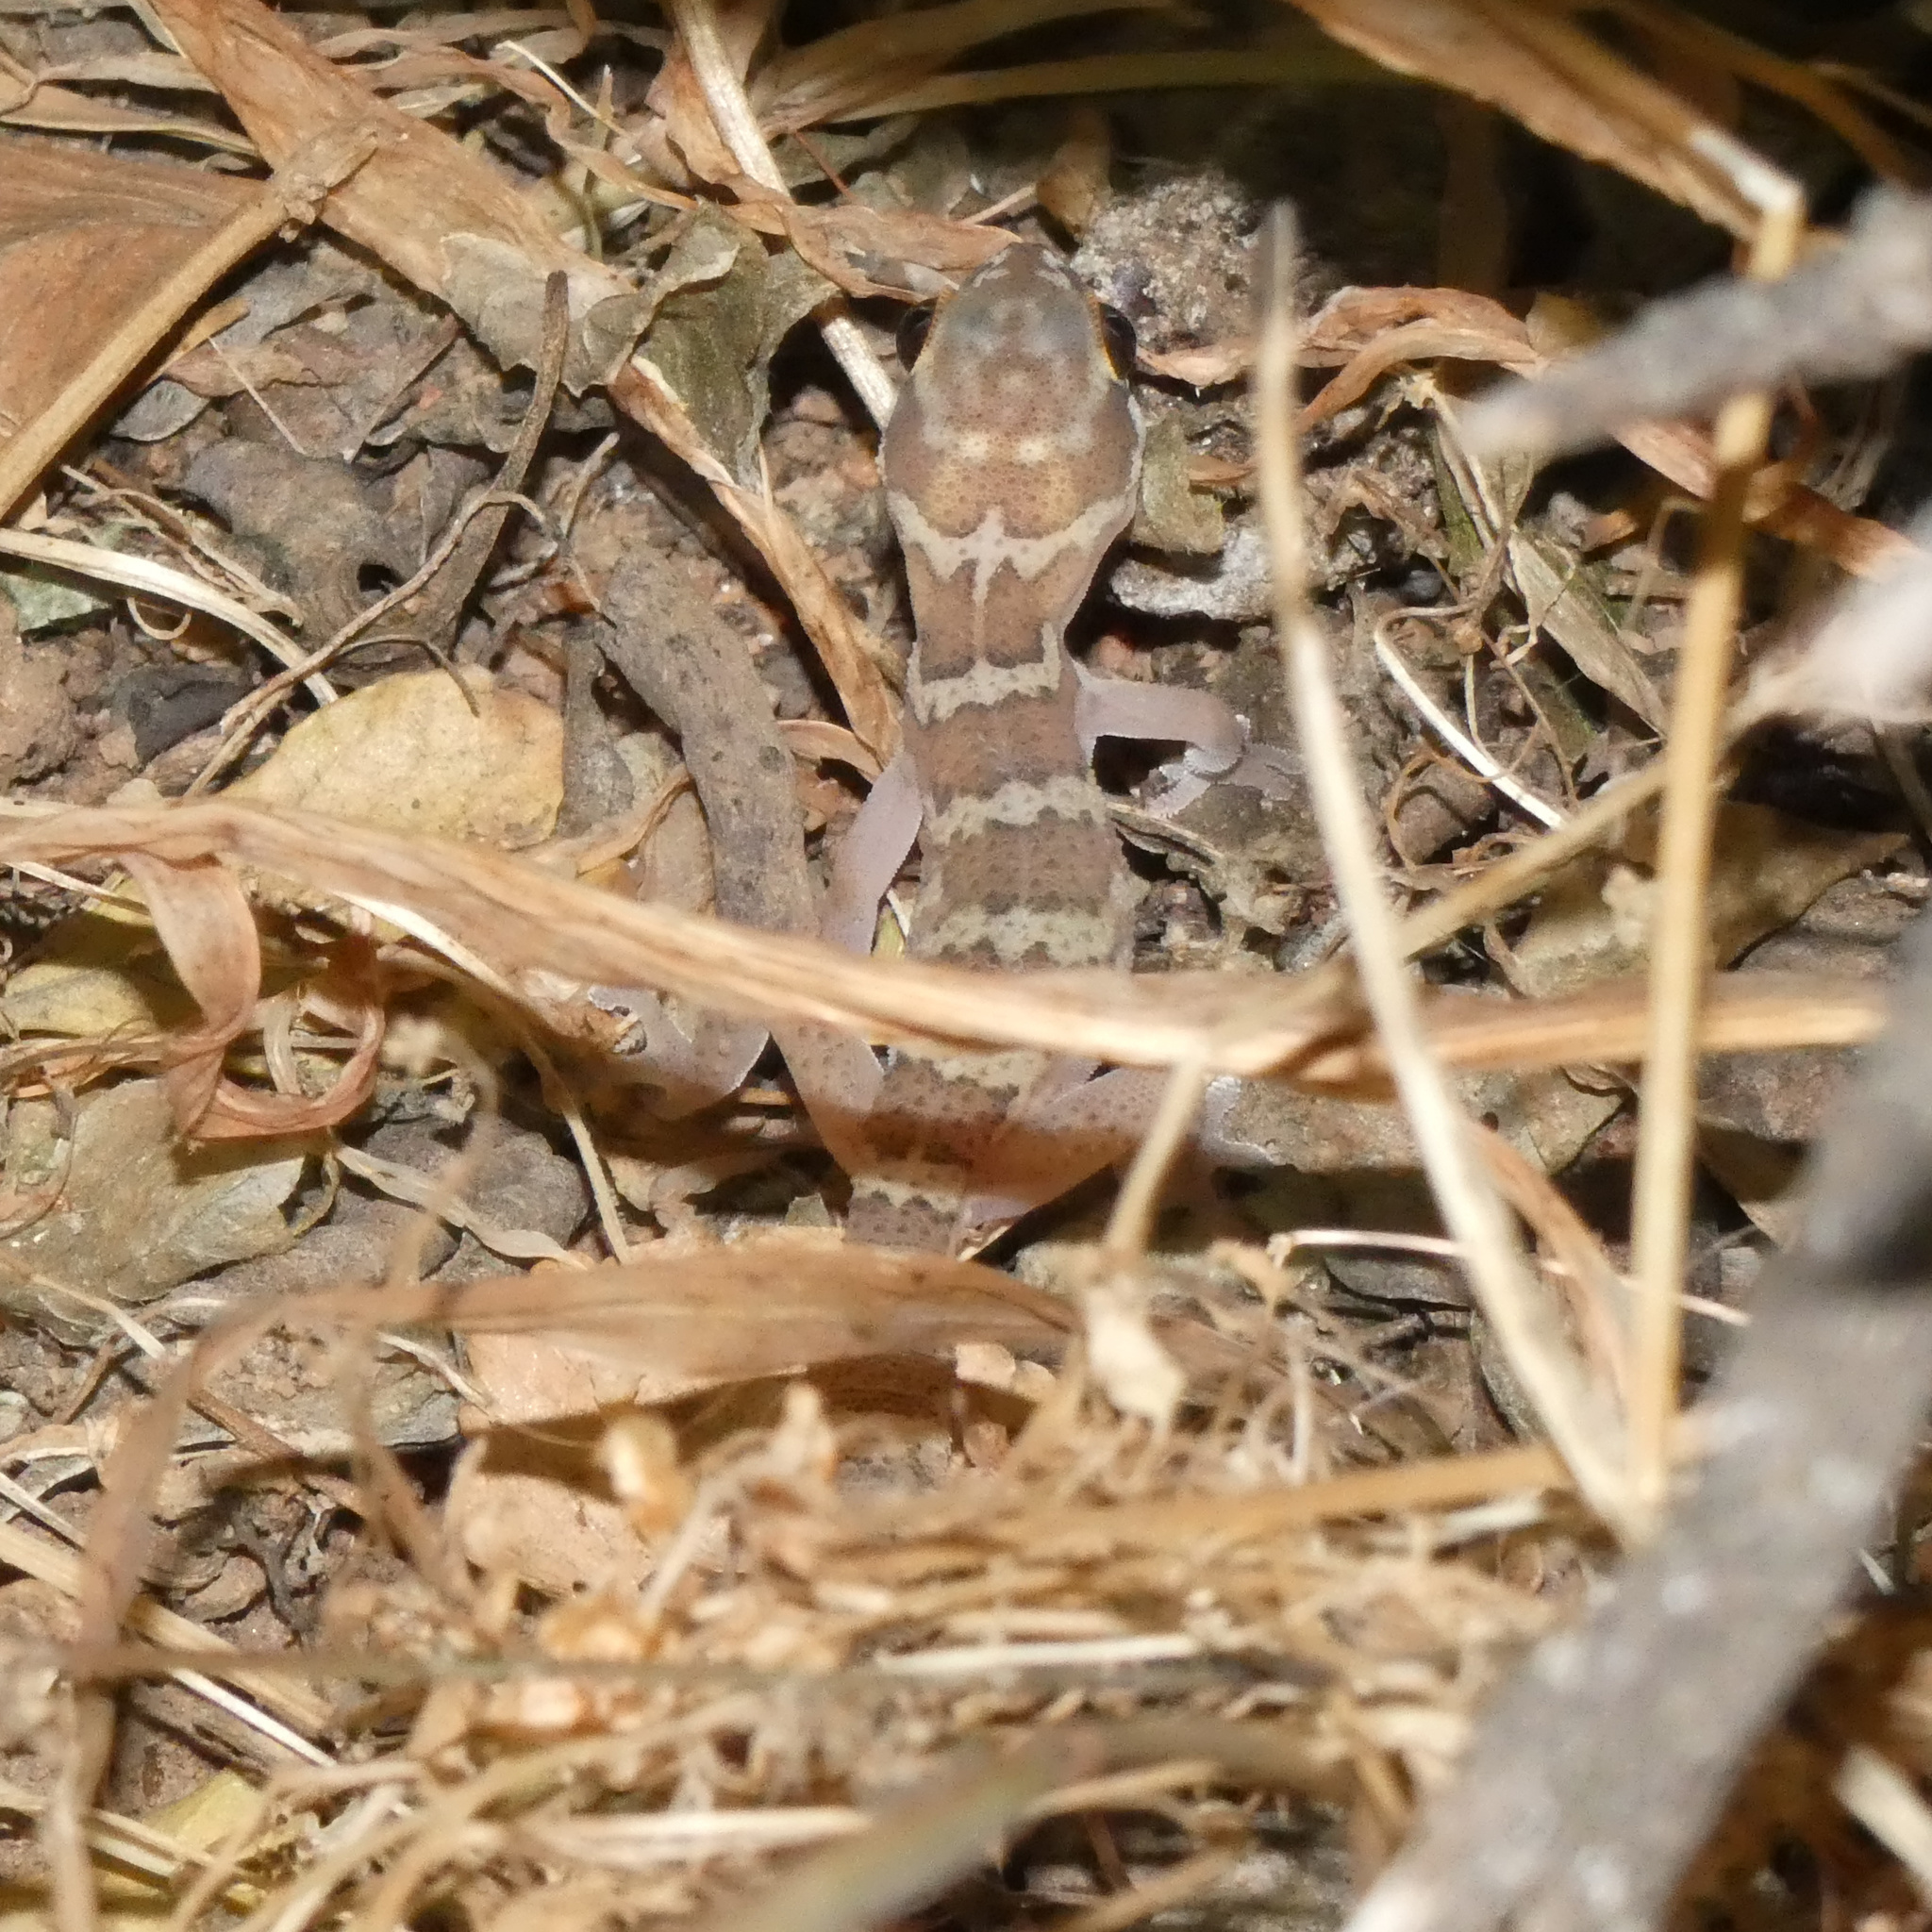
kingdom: Animalia
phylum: Chordata
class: Squamata
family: Gekkonidae
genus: Pachydactylus
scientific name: Pachydactylus formosus
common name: Southern rough gecko
